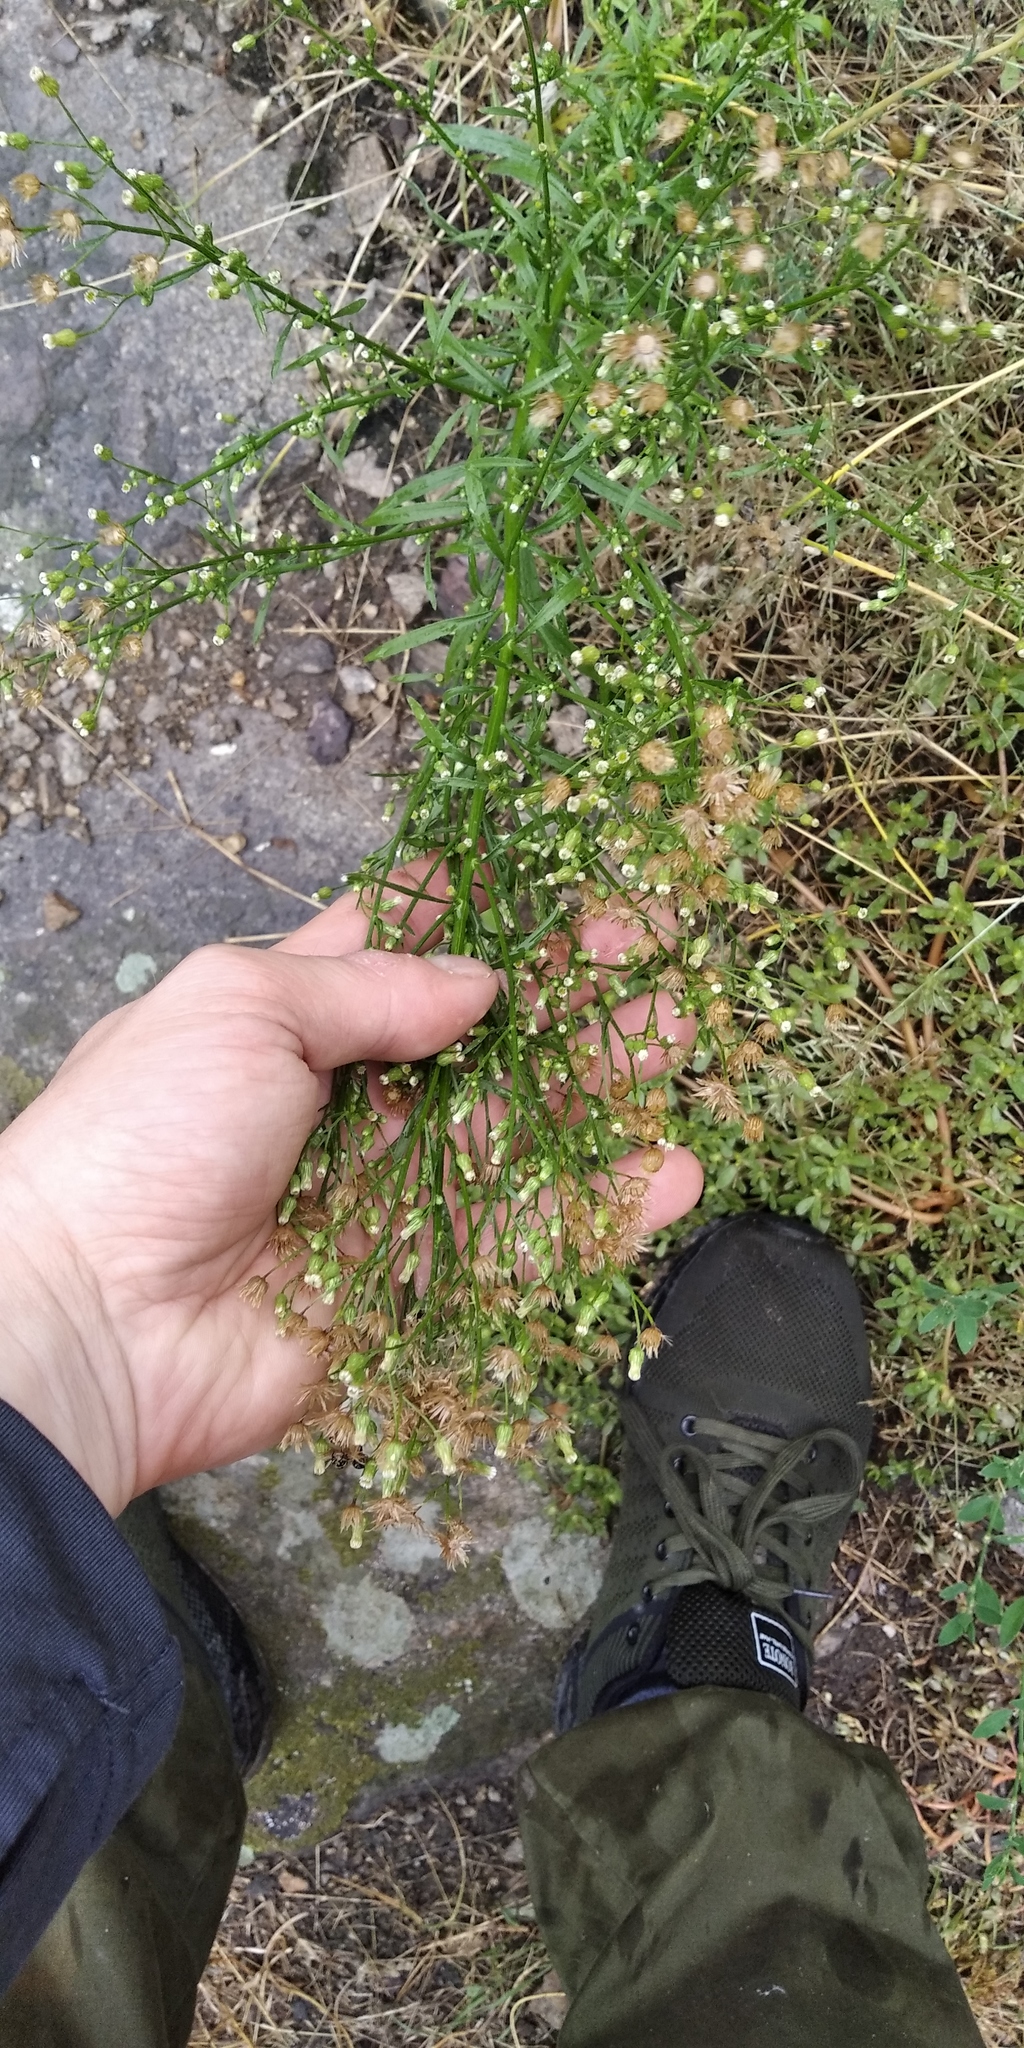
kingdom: Plantae
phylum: Tracheophyta
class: Magnoliopsida
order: Asterales
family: Asteraceae
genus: Erigeron
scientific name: Erigeron canadensis
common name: Canadian fleabane
